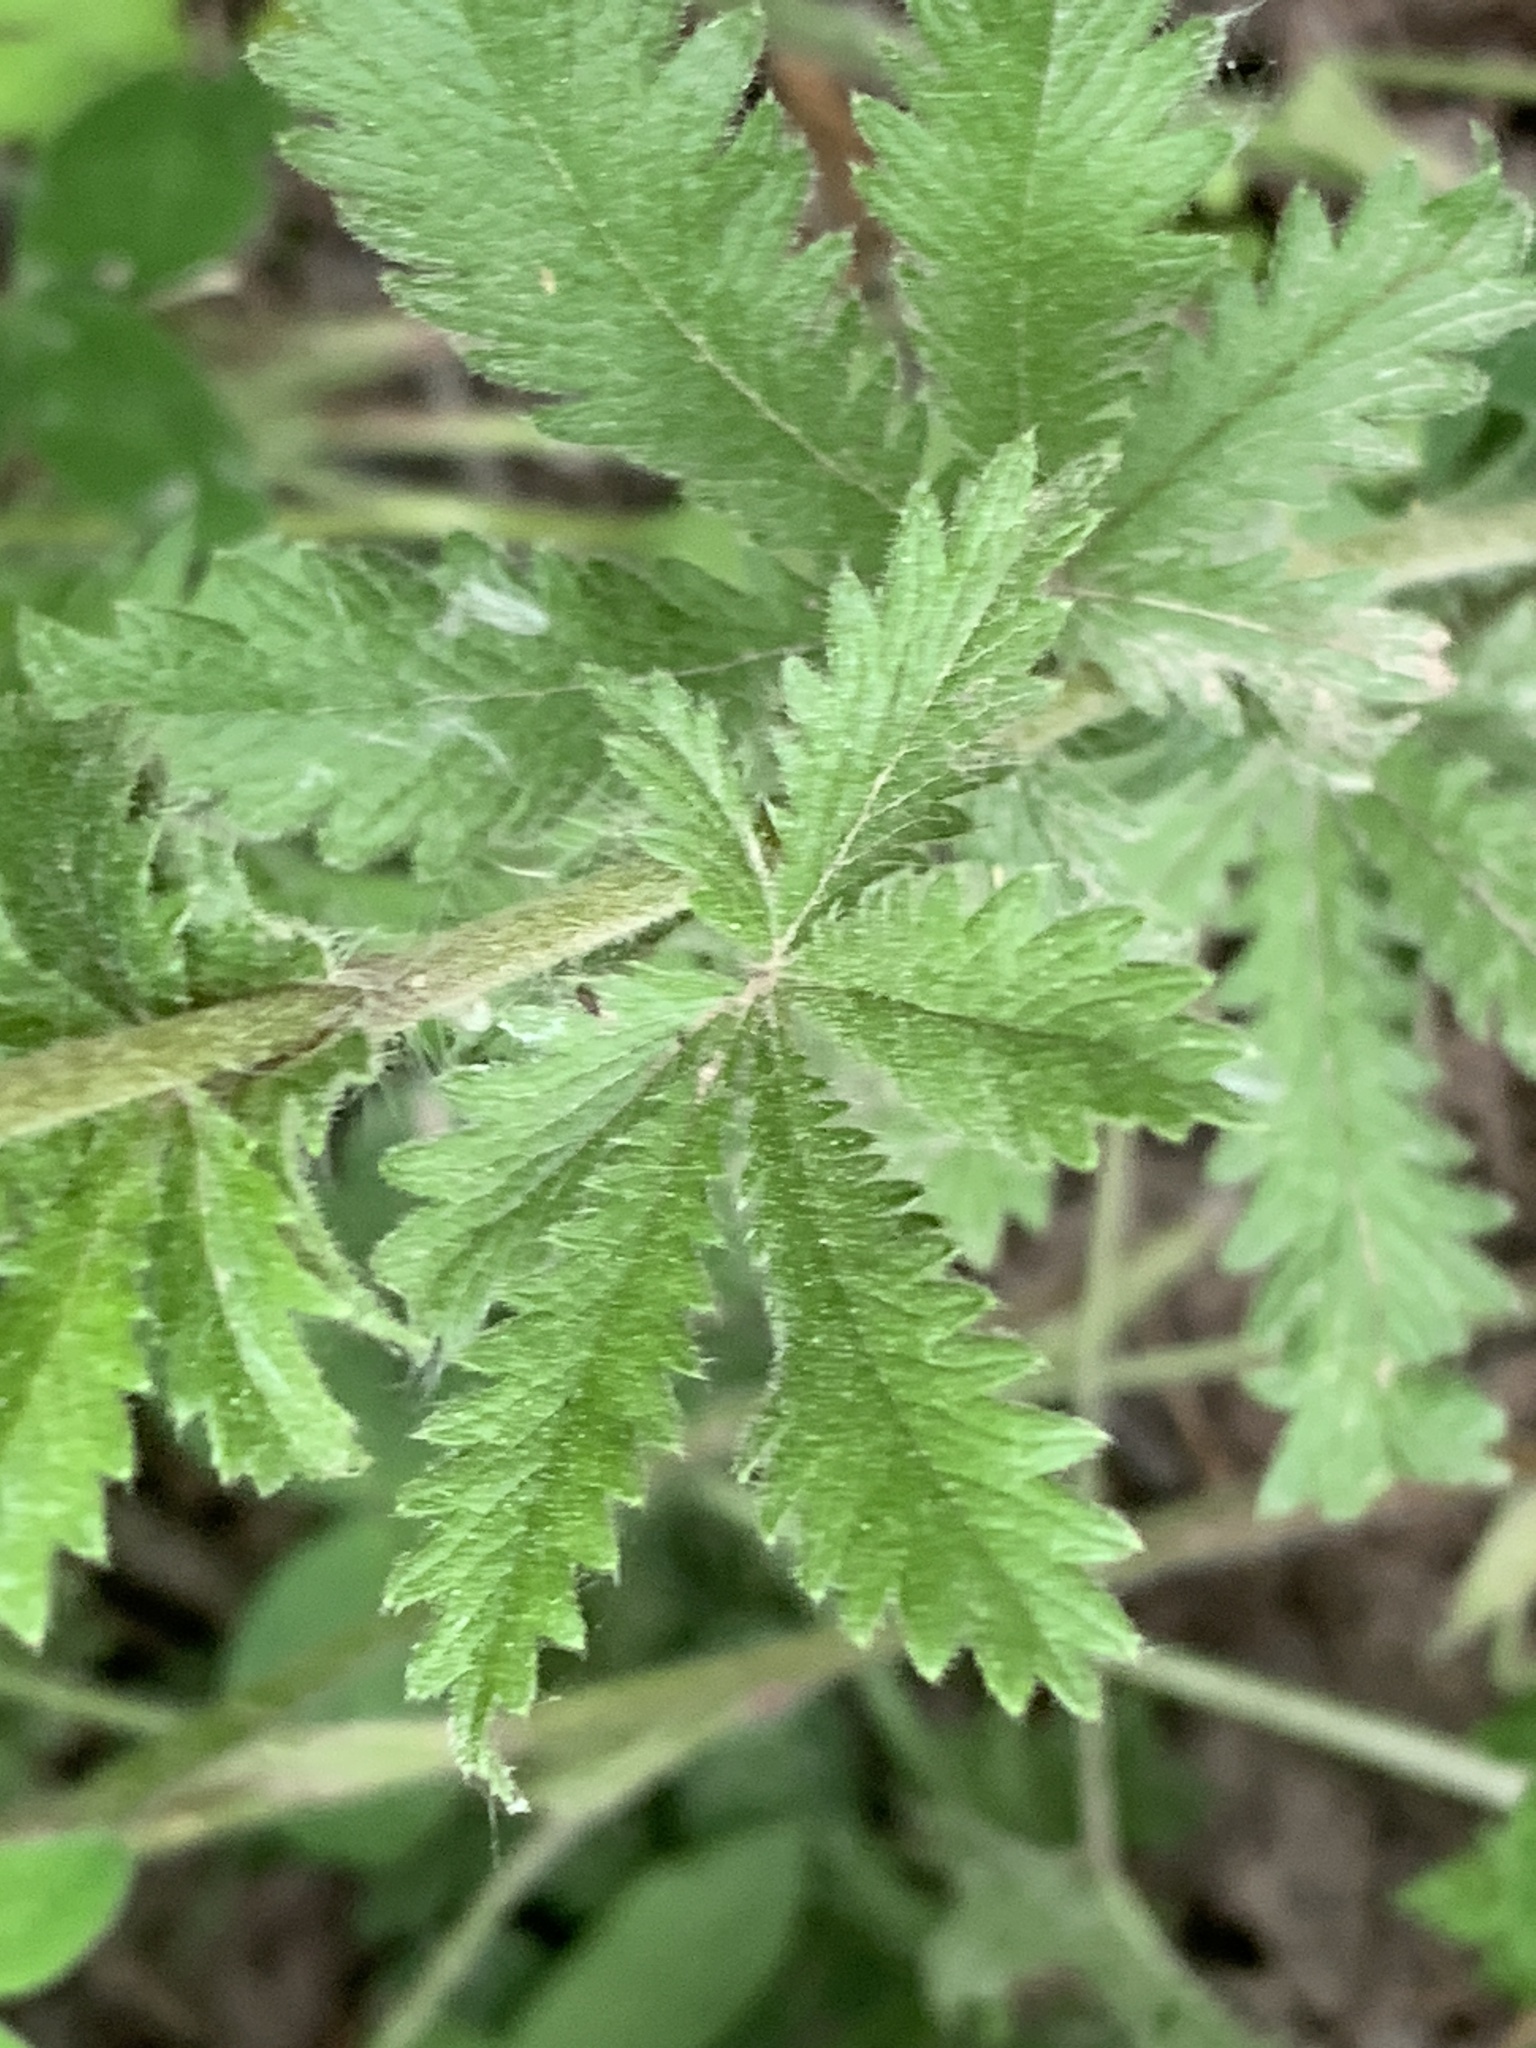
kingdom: Plantae
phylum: Tracheophyta
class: Magnoliopsida
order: Rosales
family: Rosaceae
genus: Potentilla
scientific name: Potentilla recta
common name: Sulphur cinquefoil
